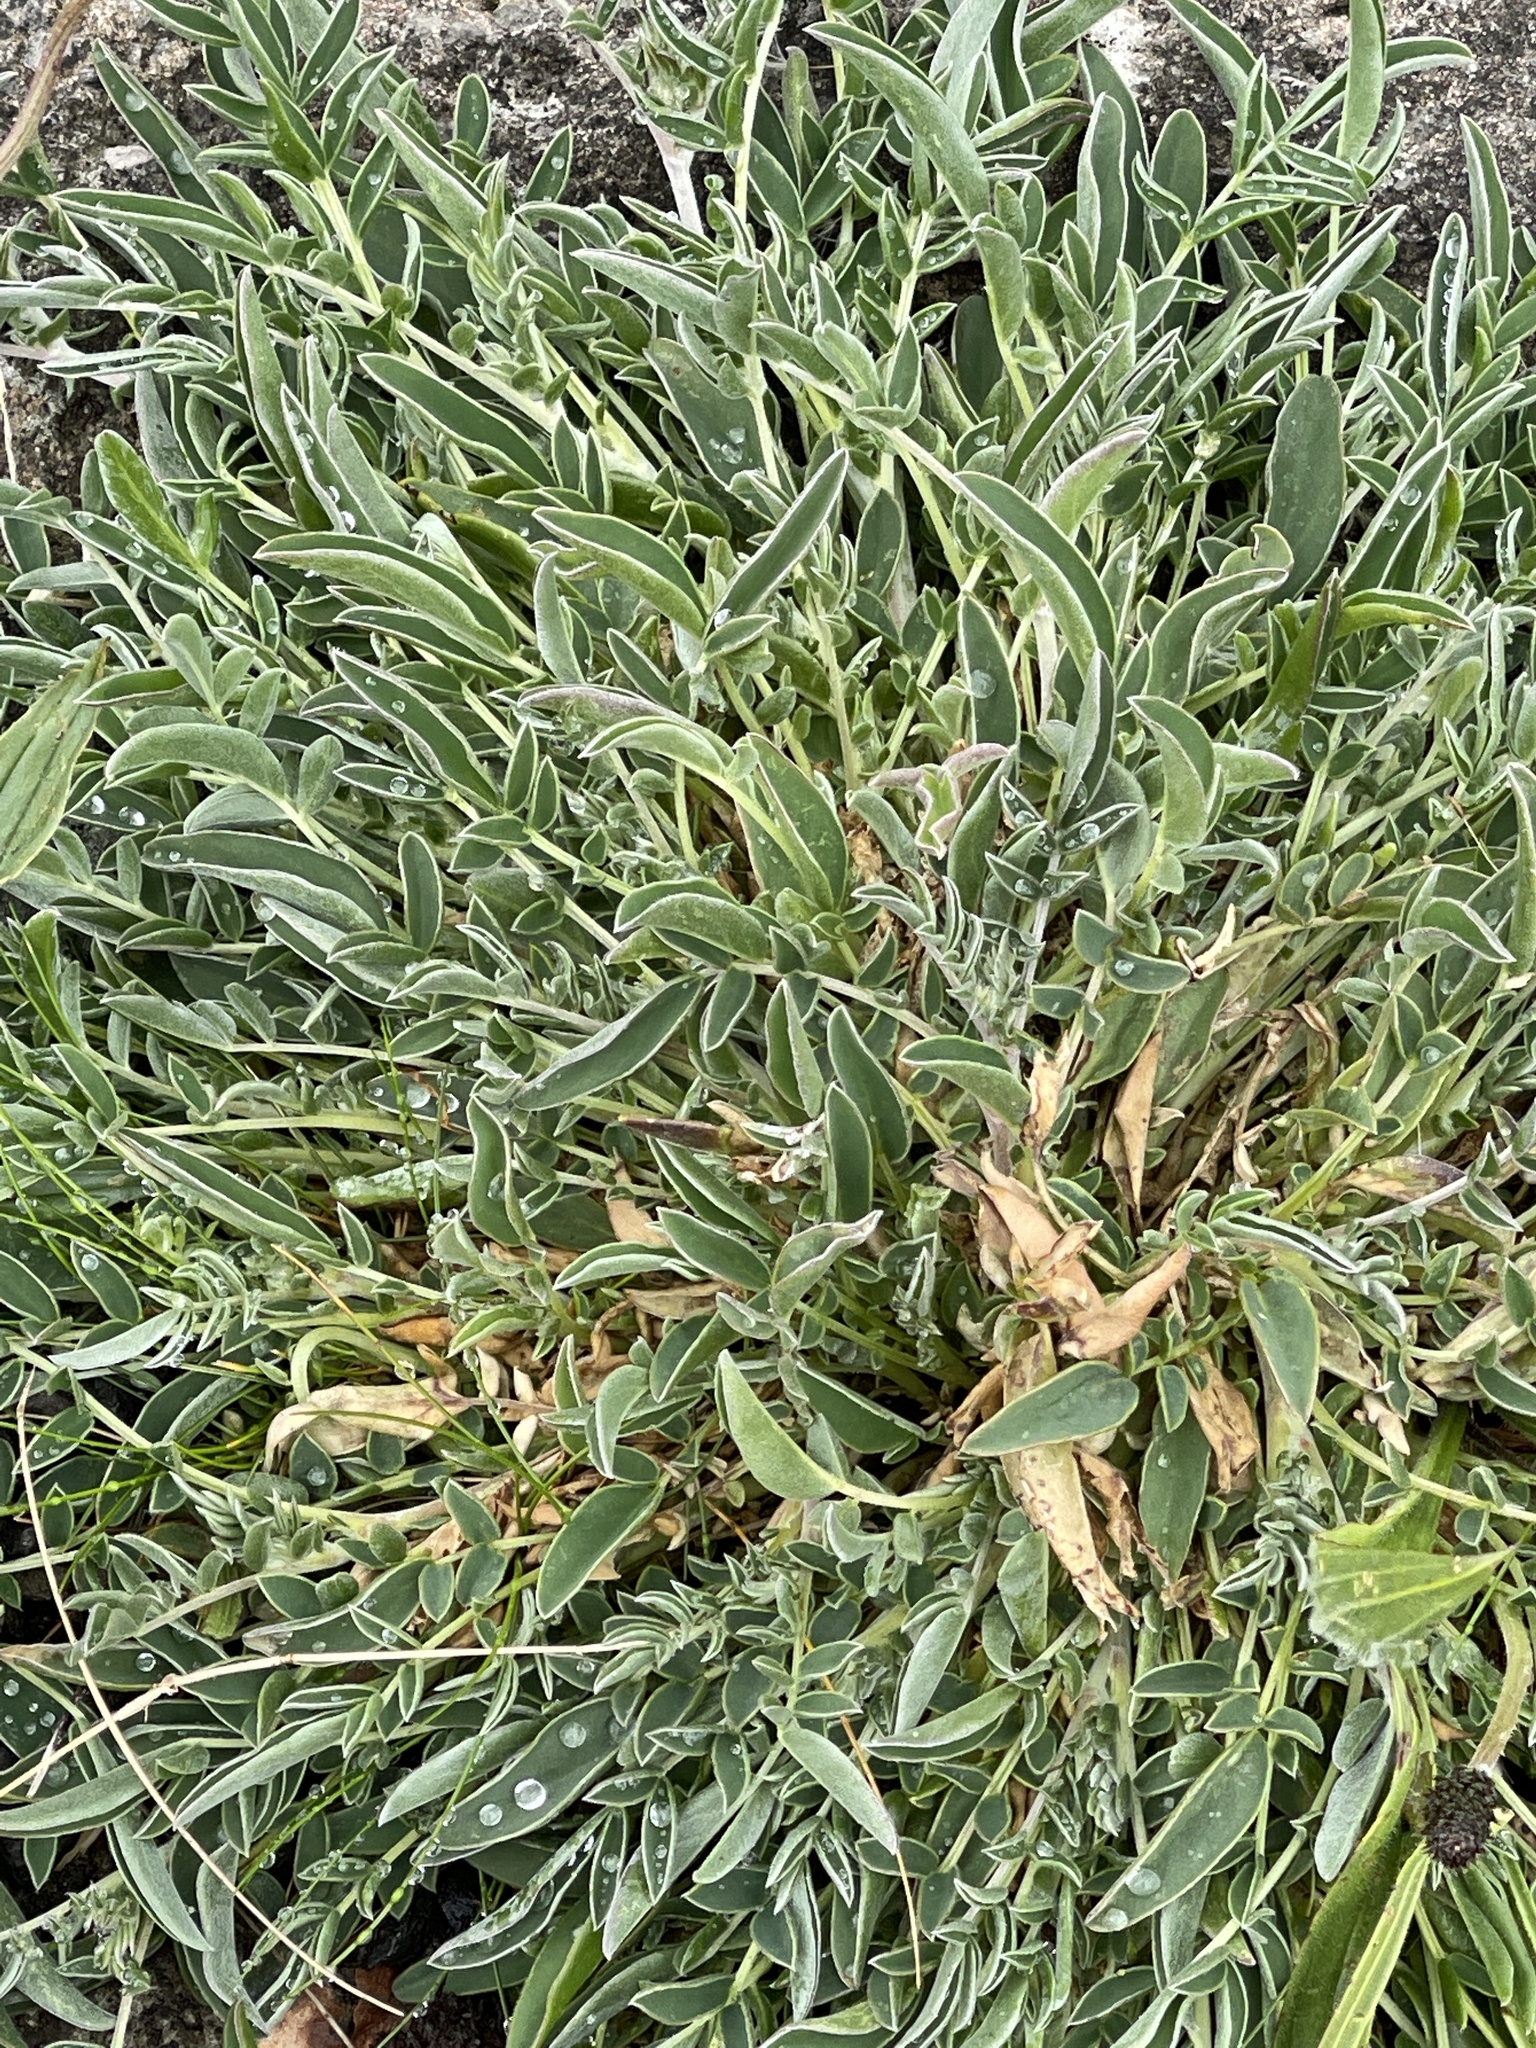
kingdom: Plantae
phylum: Tracheophyta
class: Magnoliopsida
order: Fabales
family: Fabaceae
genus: Anthyllis
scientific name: Anthyllis vulneraria
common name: Kidney vetch
